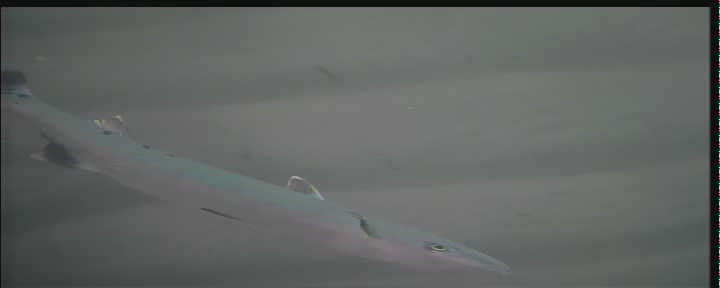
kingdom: Animalia
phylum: Chordata
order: Perciformes
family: Sphyraenidae
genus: Sphyraena
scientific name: Sphyraena barracuda
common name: Great barracuda
